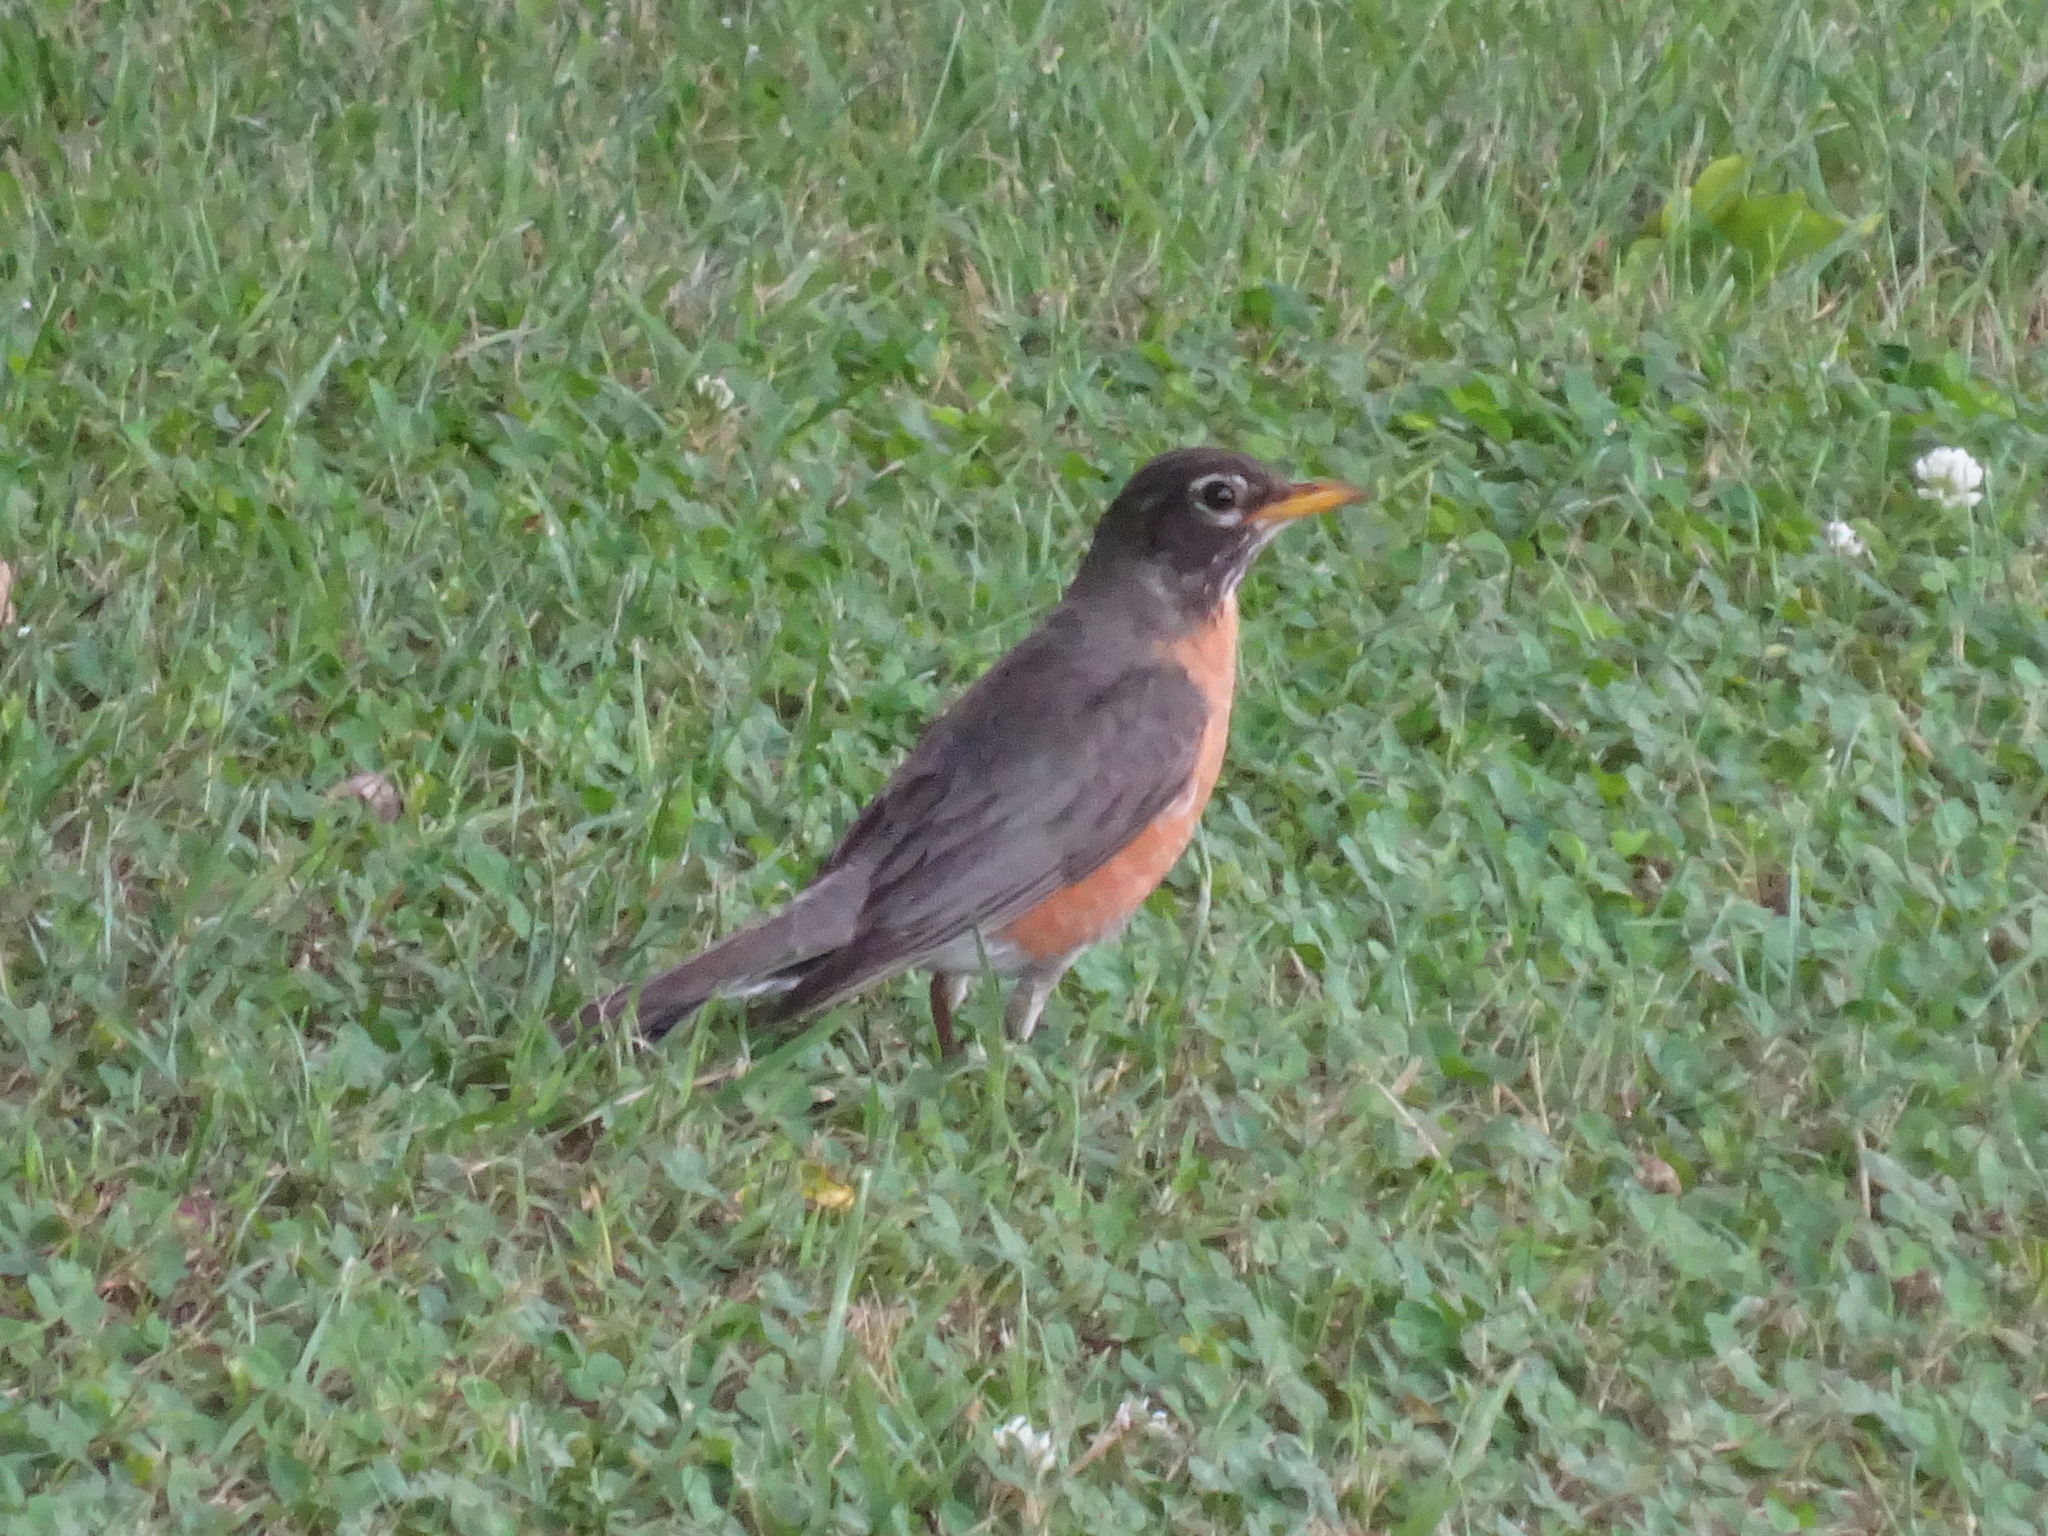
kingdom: Animalia
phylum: Chordata
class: Aves
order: Passeriformes
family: Turdidae
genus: Turdus
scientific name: Turdus migratorius
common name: American robin
